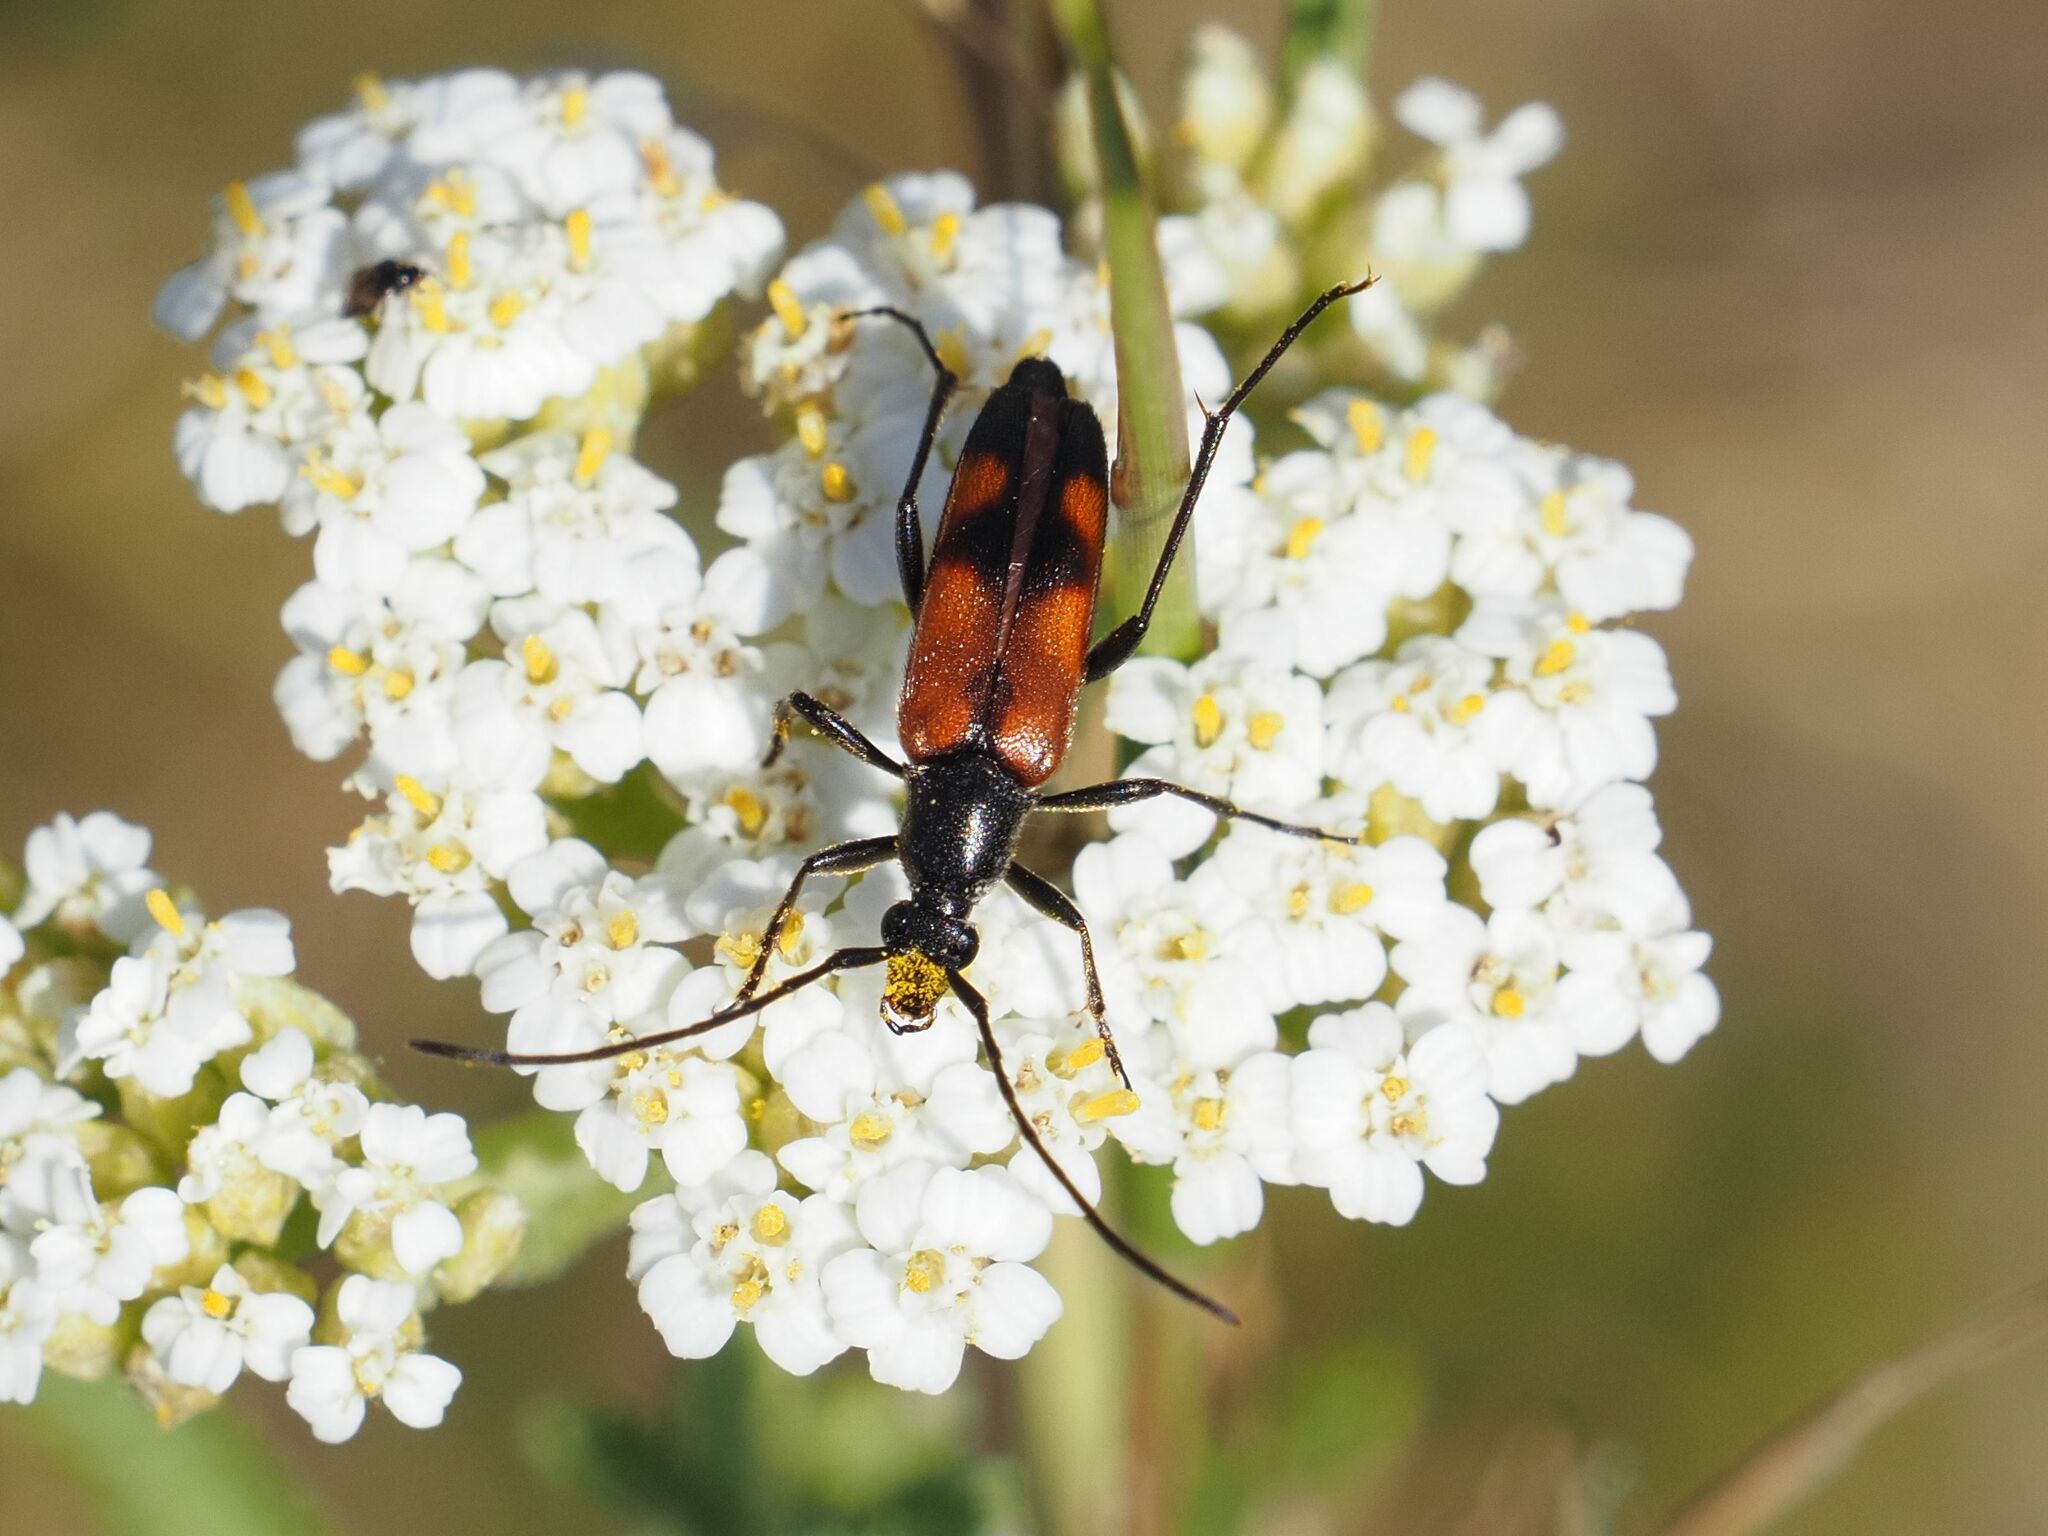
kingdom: Animalia
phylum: Arthropoda
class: Insecta
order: Coleoptera
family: Cerambycidae
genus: Stenurella
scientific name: Stenurella bifasciata
